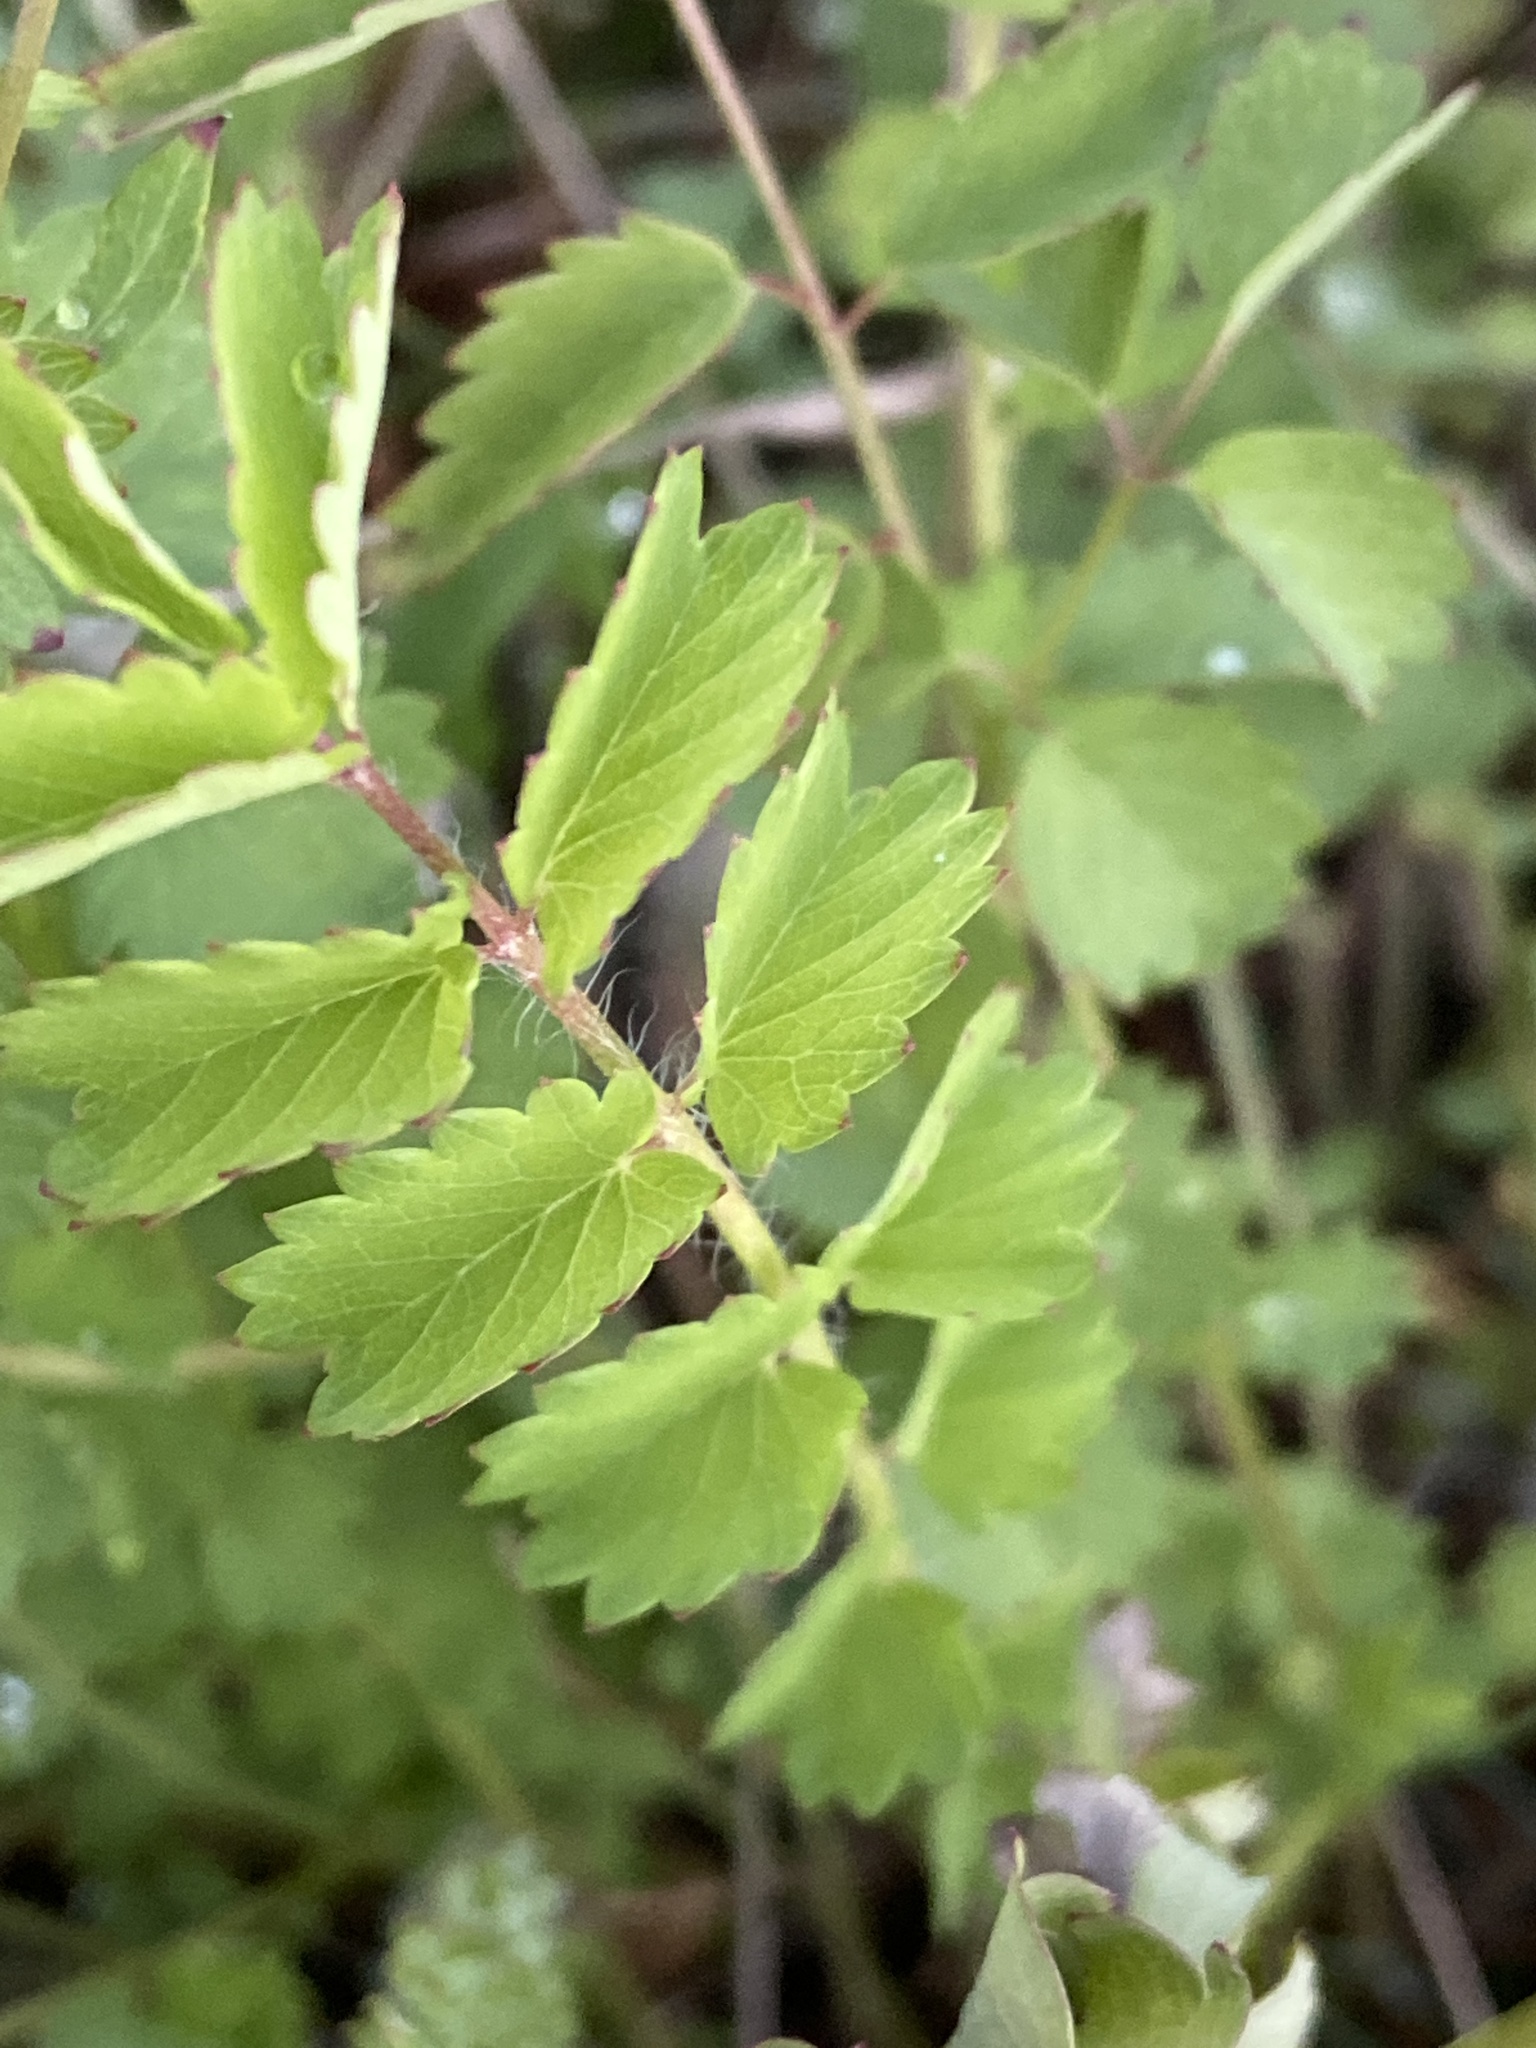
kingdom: Plantae
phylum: Tracheophyta
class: Magnoliopsida
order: Rosales
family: Rosaceae
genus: Poterium
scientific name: Poterium sanguisorba
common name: Salad burnet
